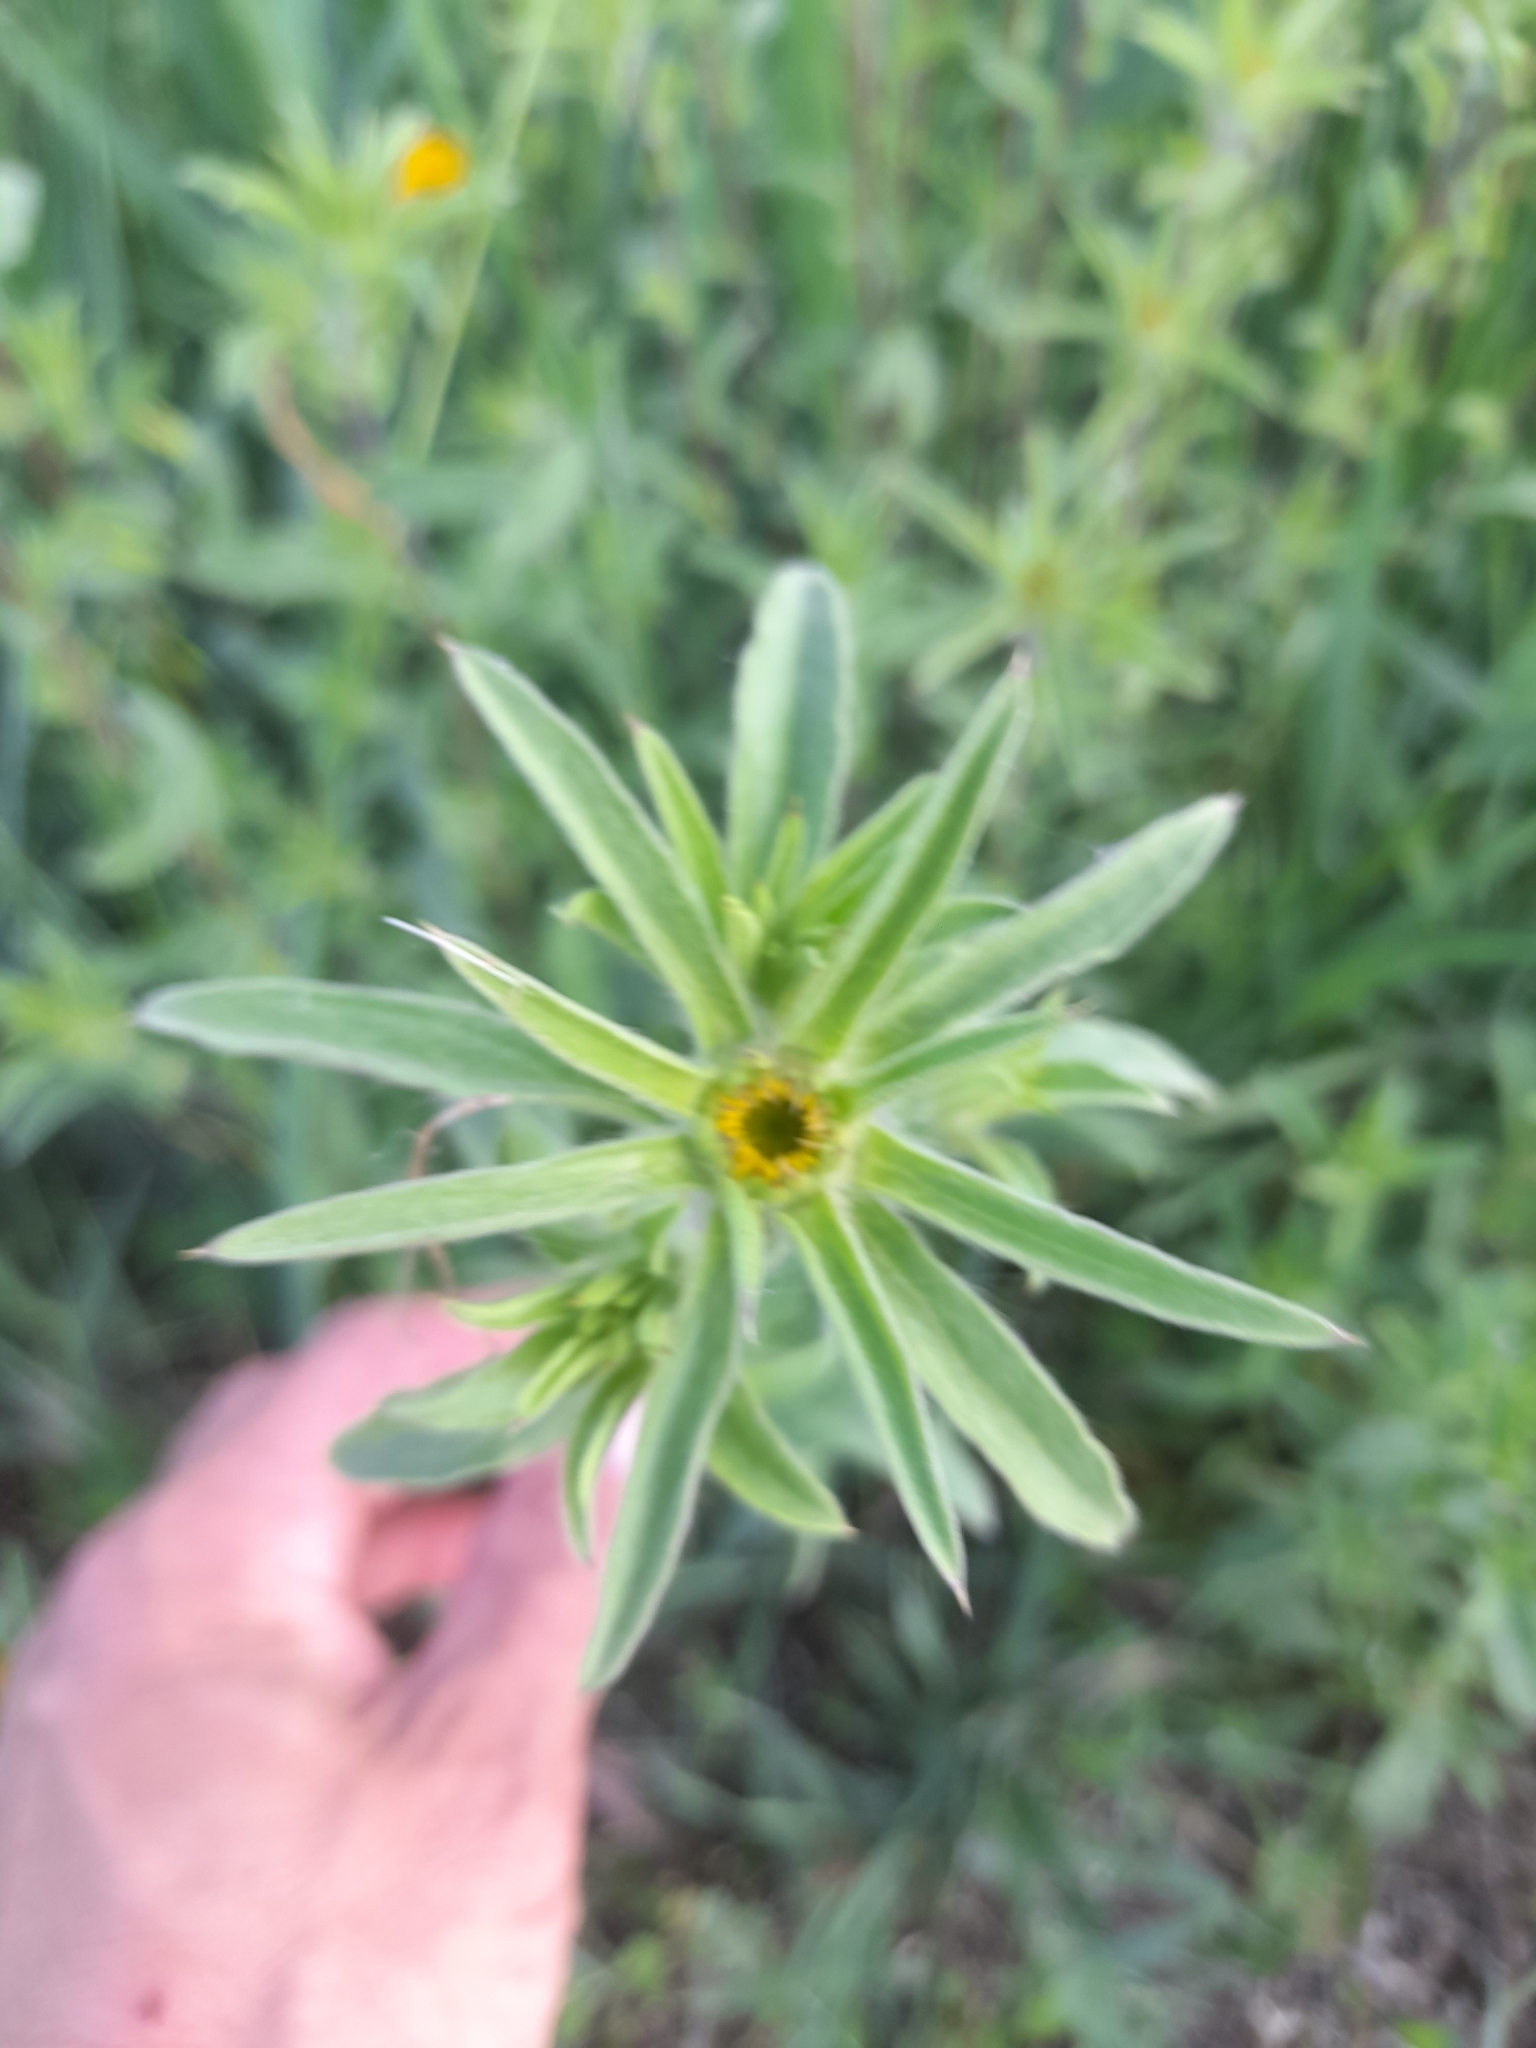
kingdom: Plantae
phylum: Tracheophyta
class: Magnoliopsida
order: Asterales
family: Asteraceae
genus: Pallenis
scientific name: Pallenis spinosa
